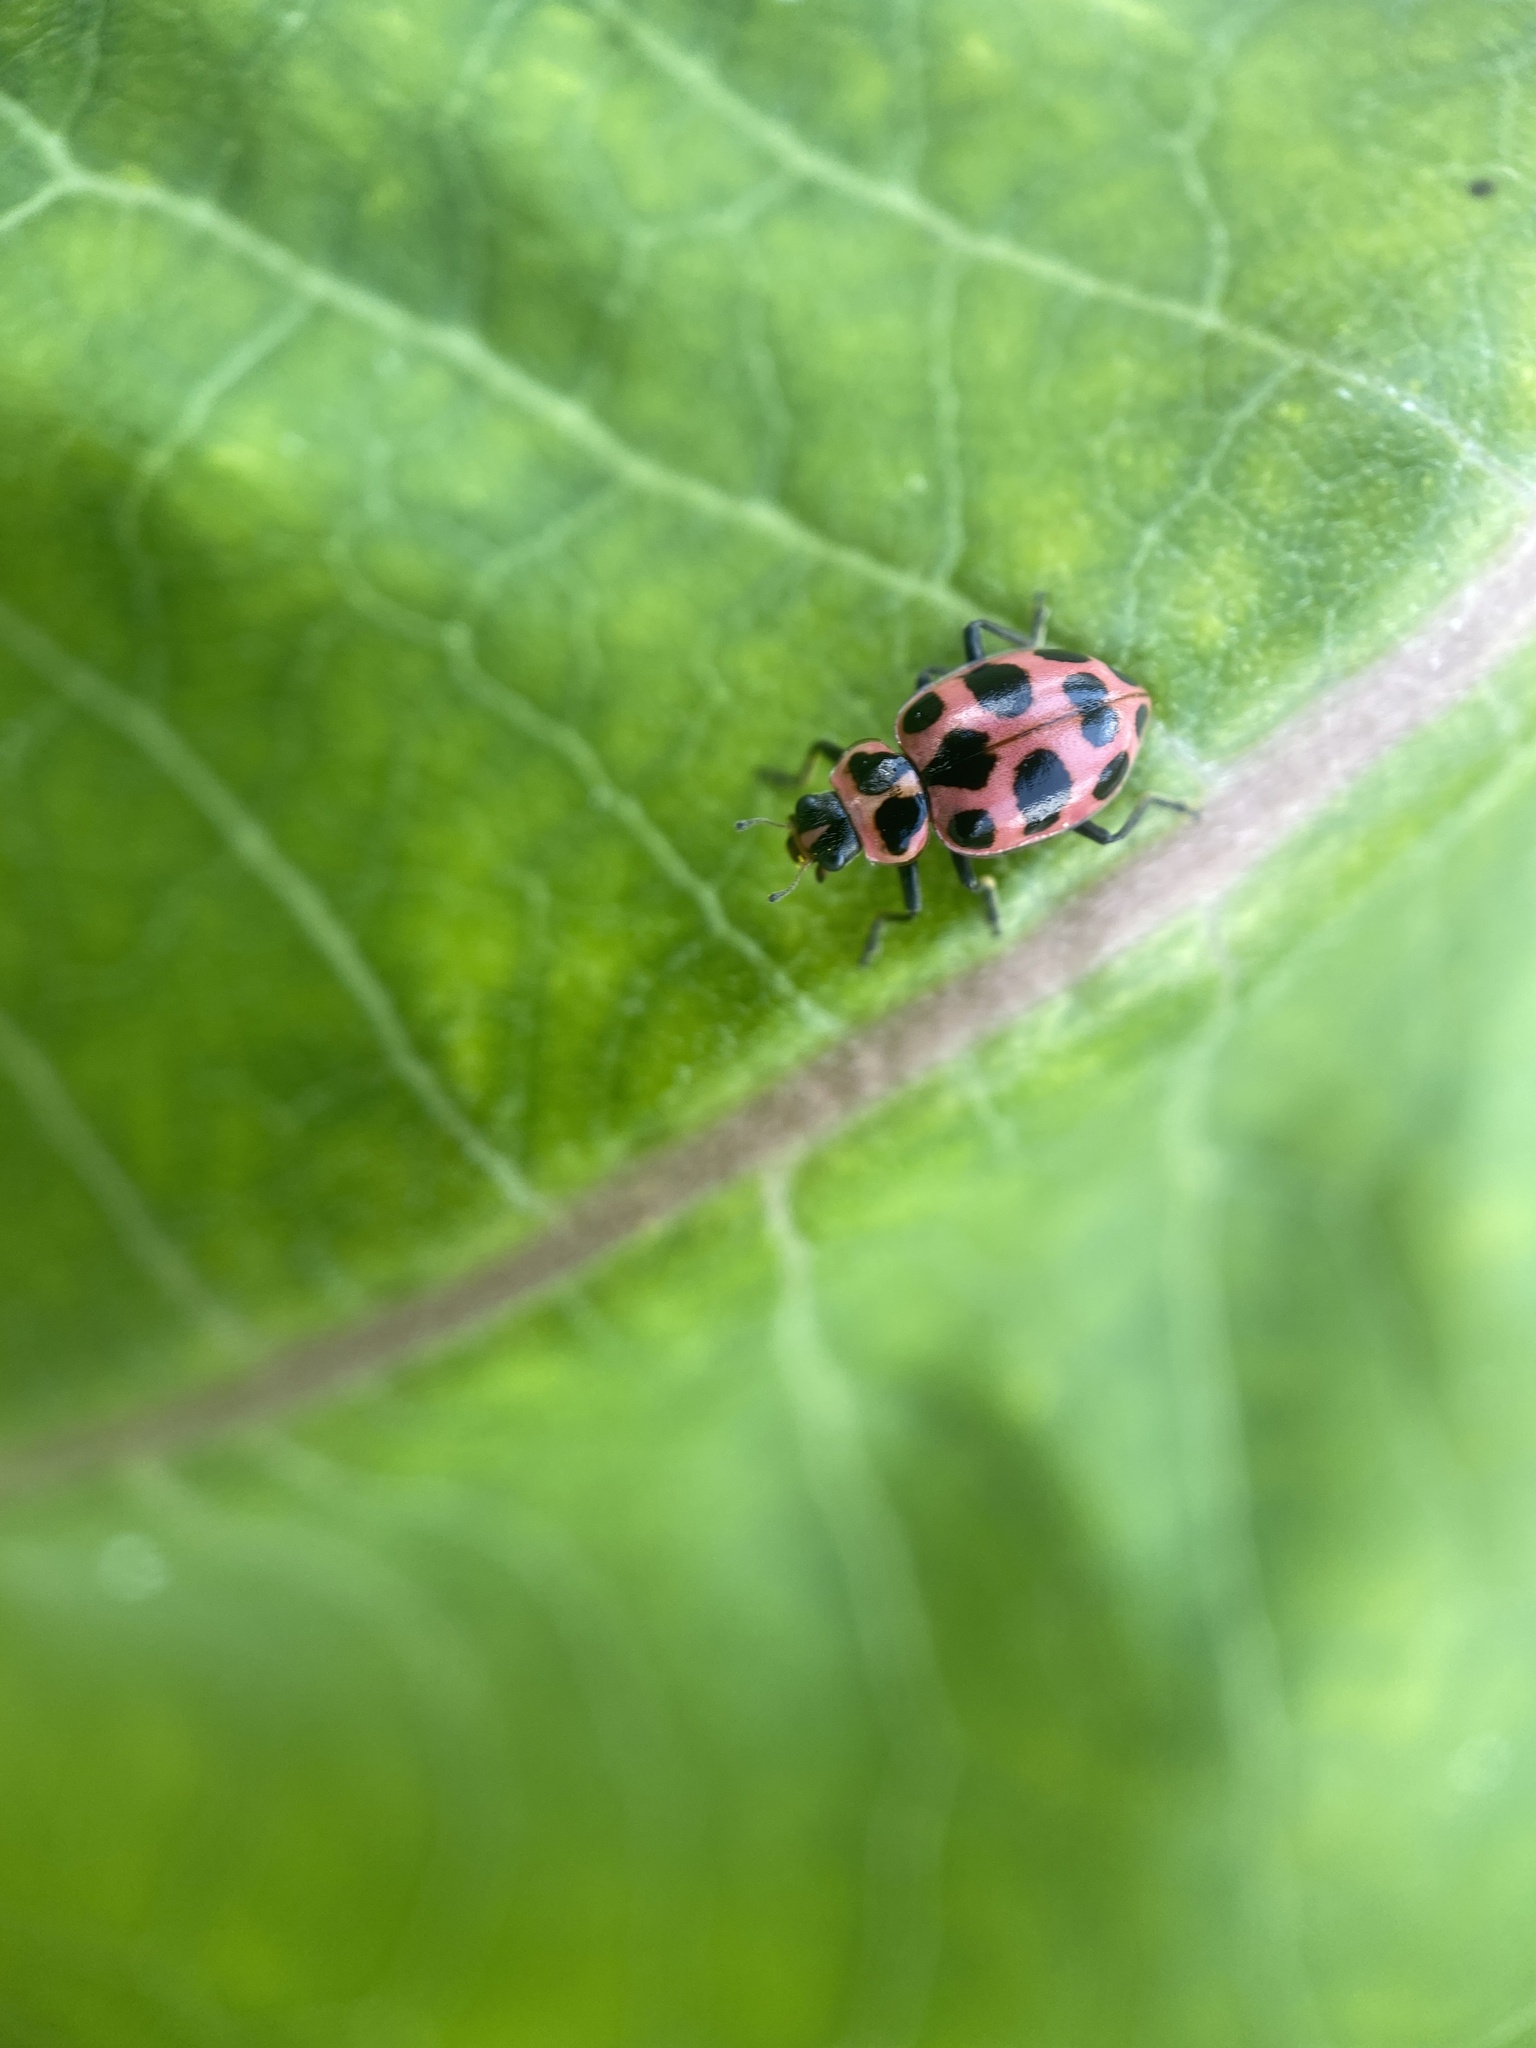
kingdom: Animalia
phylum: Arthropoda
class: Insecta
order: Coleoptera
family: Coccinellidae
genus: Coleomegilla
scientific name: Coleomegilla maculata
